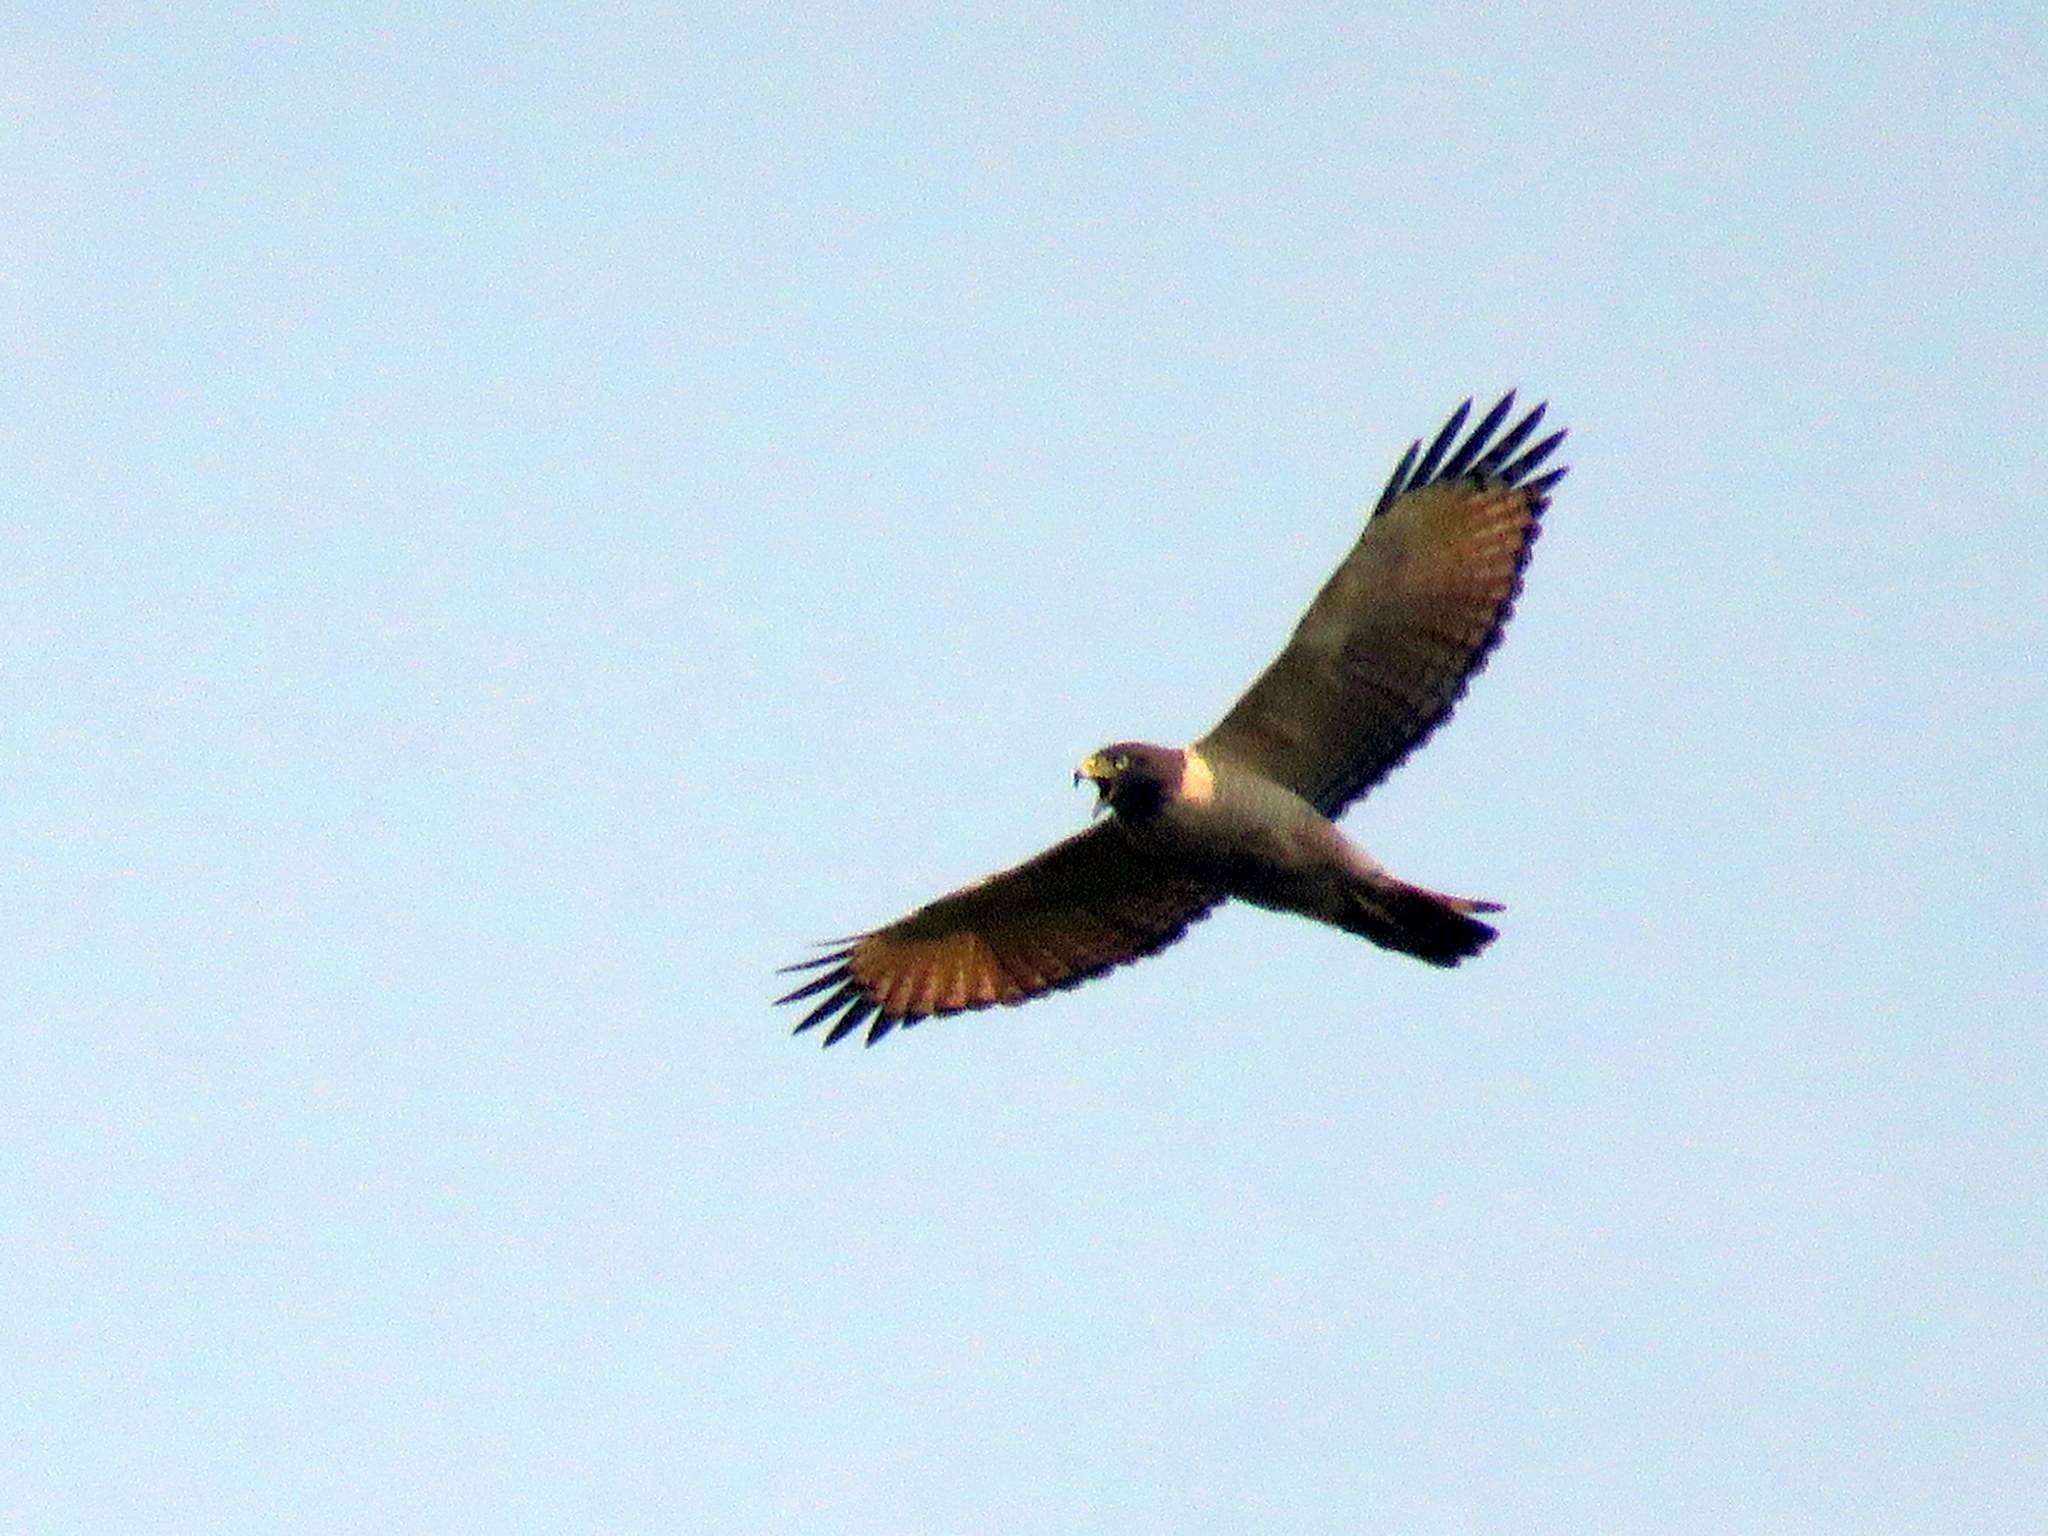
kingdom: Animalia
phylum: Chordata
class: Aves
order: Accipitriformes
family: Accipitridae
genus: Rupornis
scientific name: Rupornis magnirostris
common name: Roadside hawk
